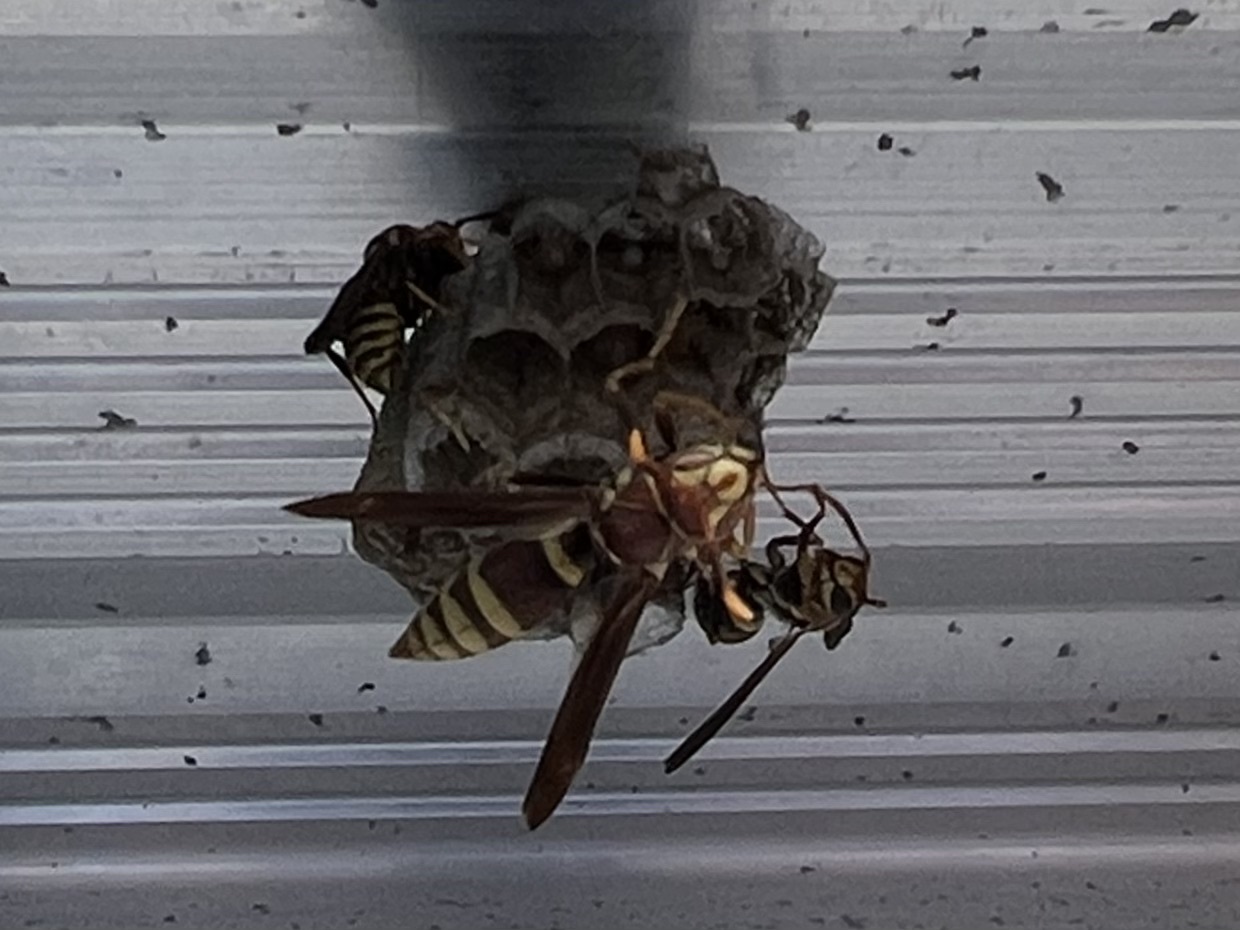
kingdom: Animalia
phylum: Arthropoda
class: Insecta
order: Hymenoptera
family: Eumenidae
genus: Polistes
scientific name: Polistes exclamans
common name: Paper wasp
